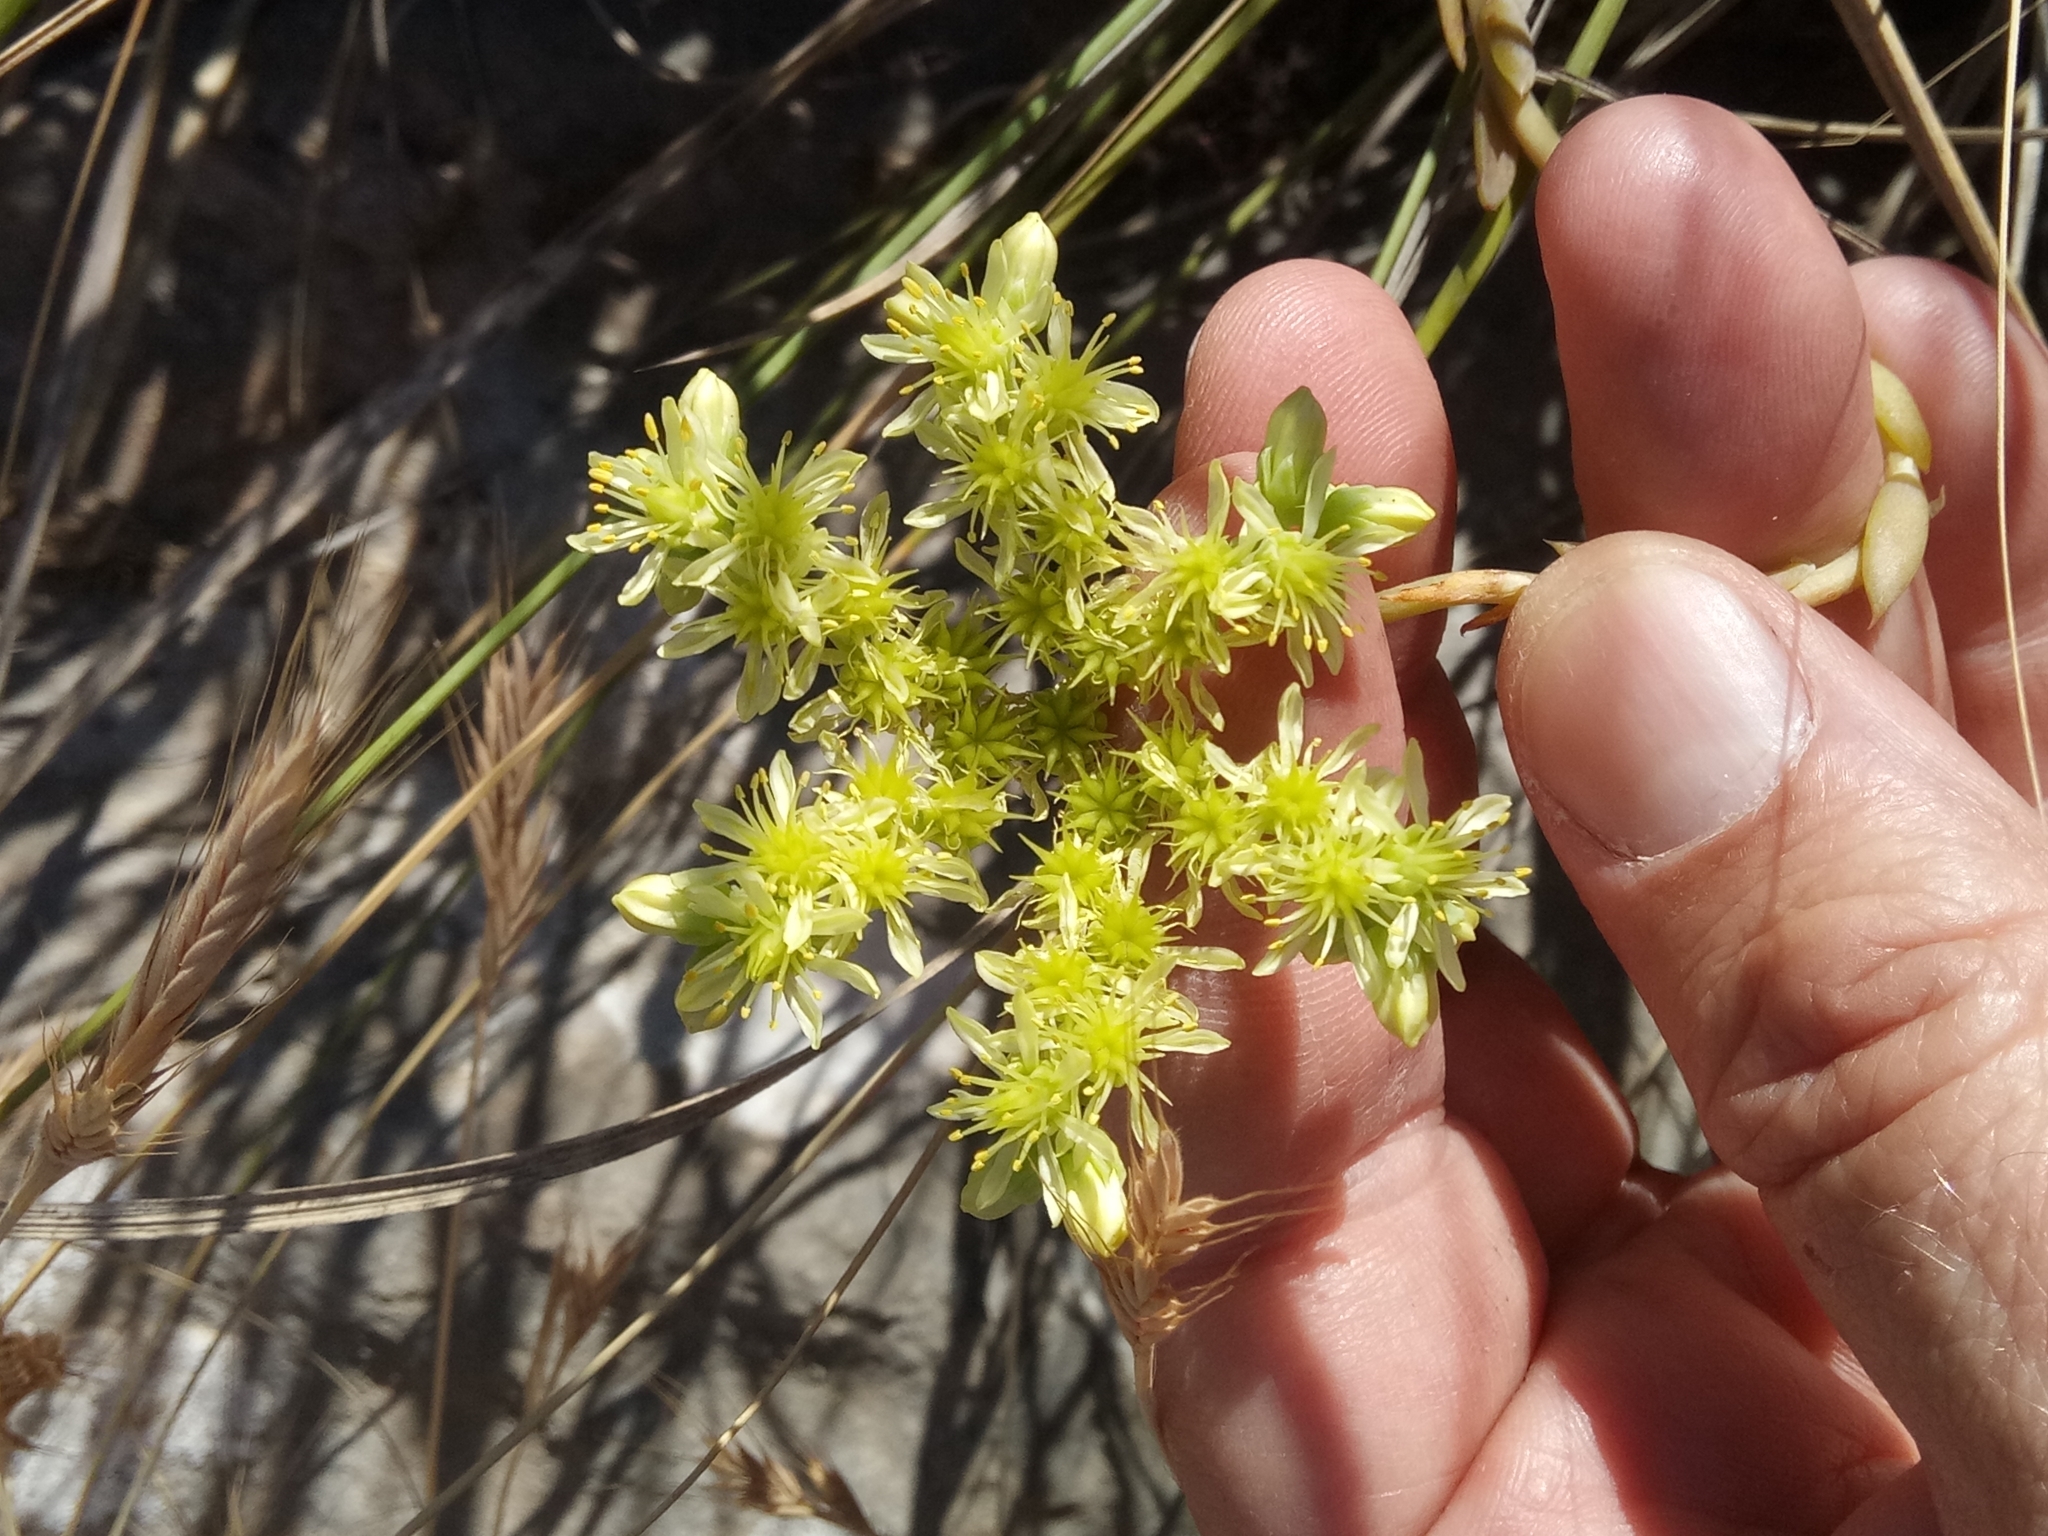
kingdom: Plantae
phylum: Tracheophyta
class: Magnoliopsida
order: Saxifragales
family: Crassulaceae
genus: Petrosedum
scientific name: Petrosedum sediforme
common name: Pale stonecrop
